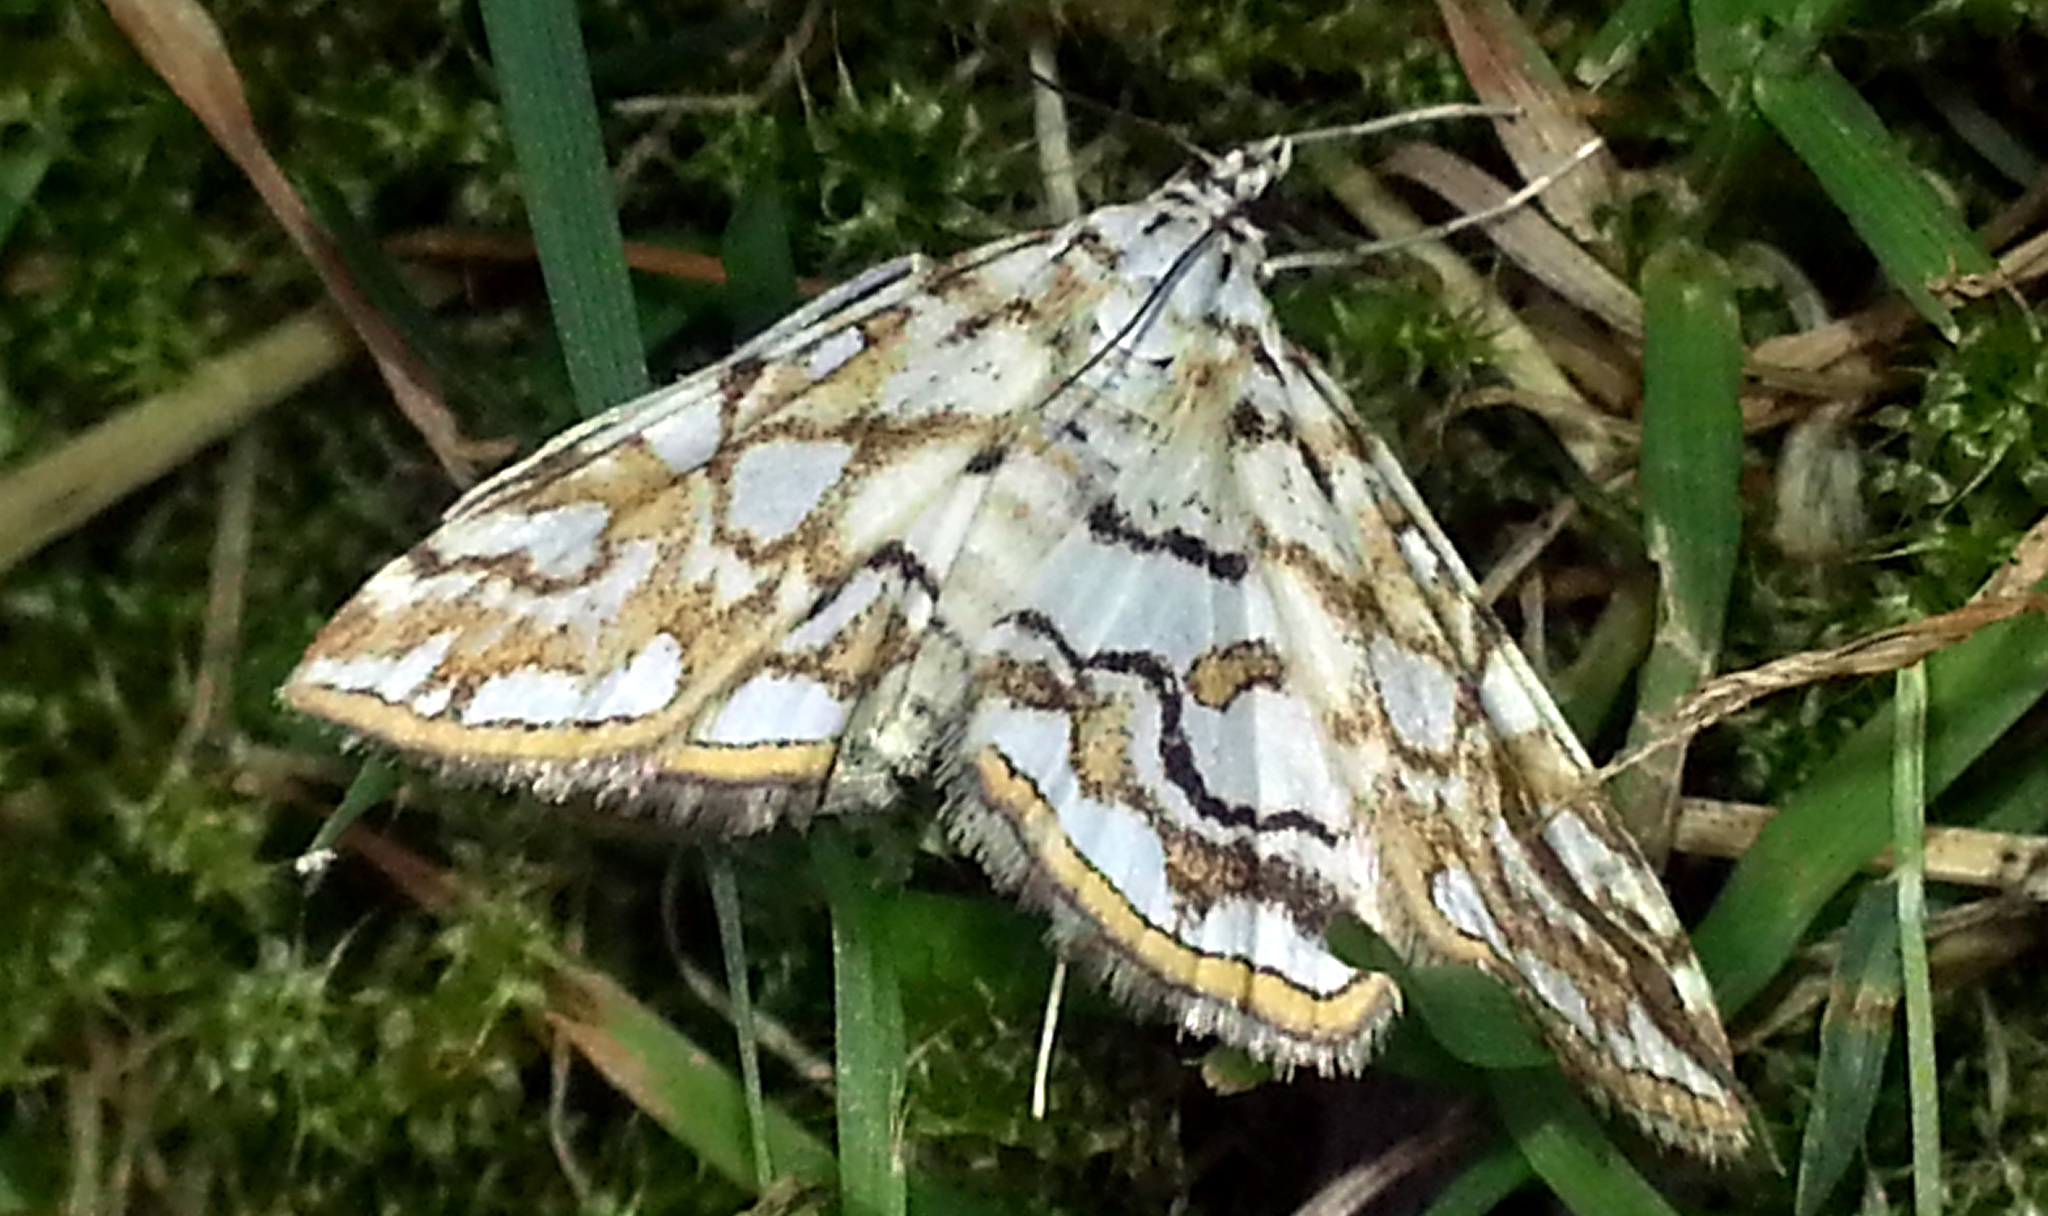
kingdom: Animalia
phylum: Arthropoda
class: Insecta
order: Lepidoptera
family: Crambidae
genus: Elophila
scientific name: Elophila nymphaeata
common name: Brown china-mark
